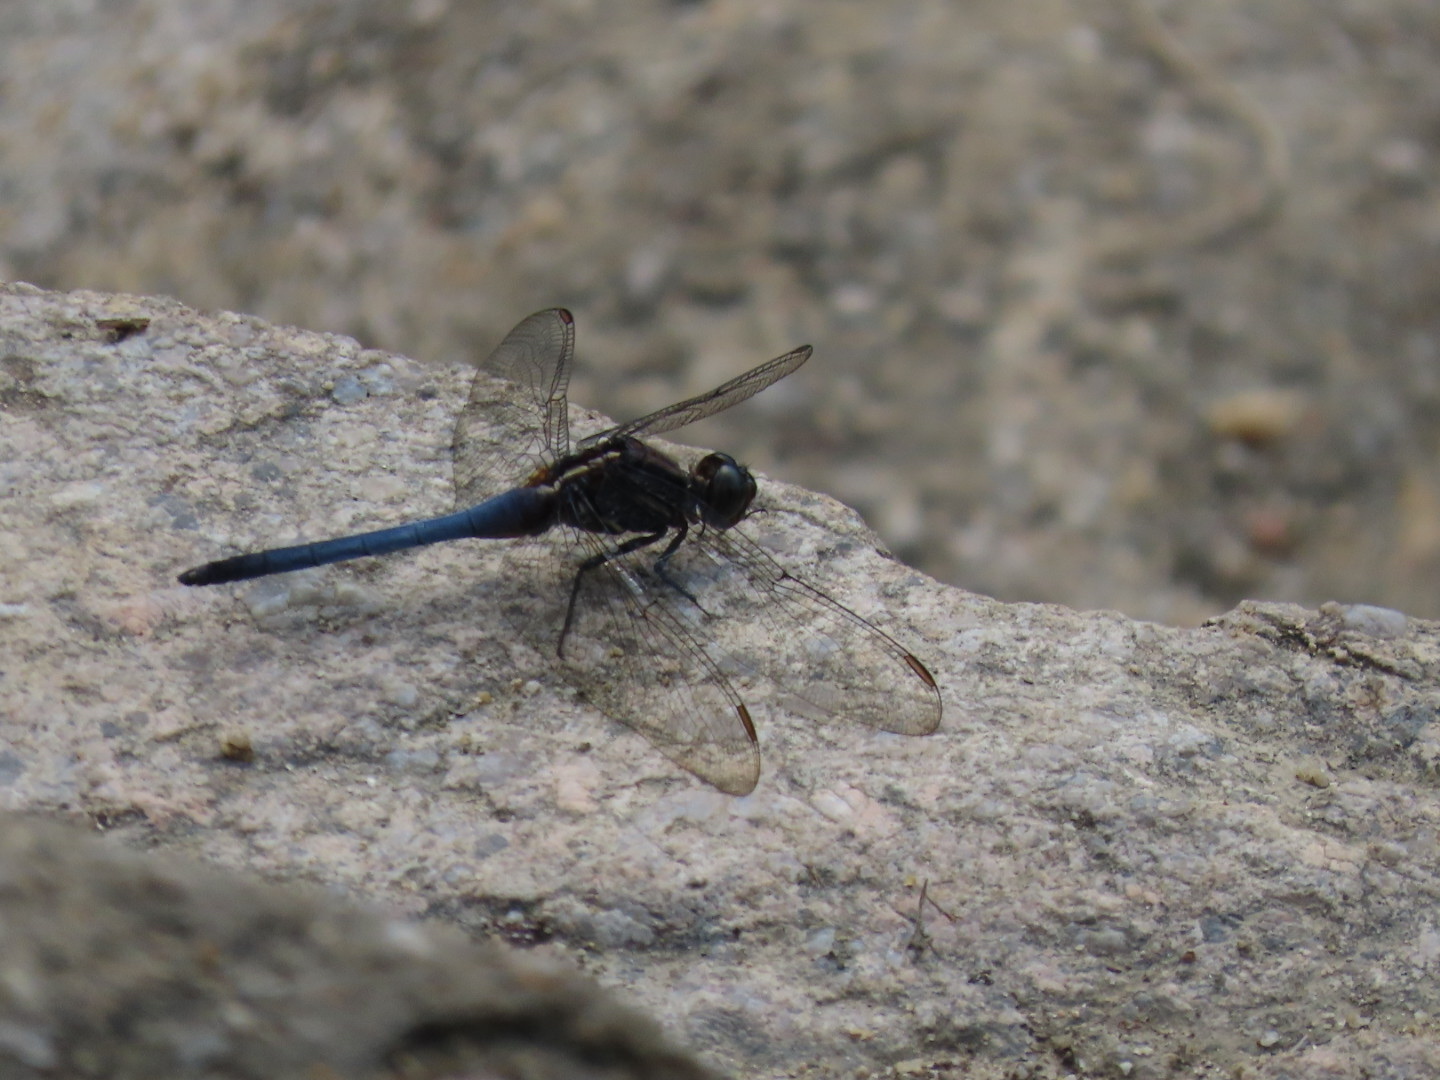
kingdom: Animalia
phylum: Arthropoda
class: Insecta
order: Odonata
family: Libellulidae
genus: Orthetrum
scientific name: Orthetrum glaucum
